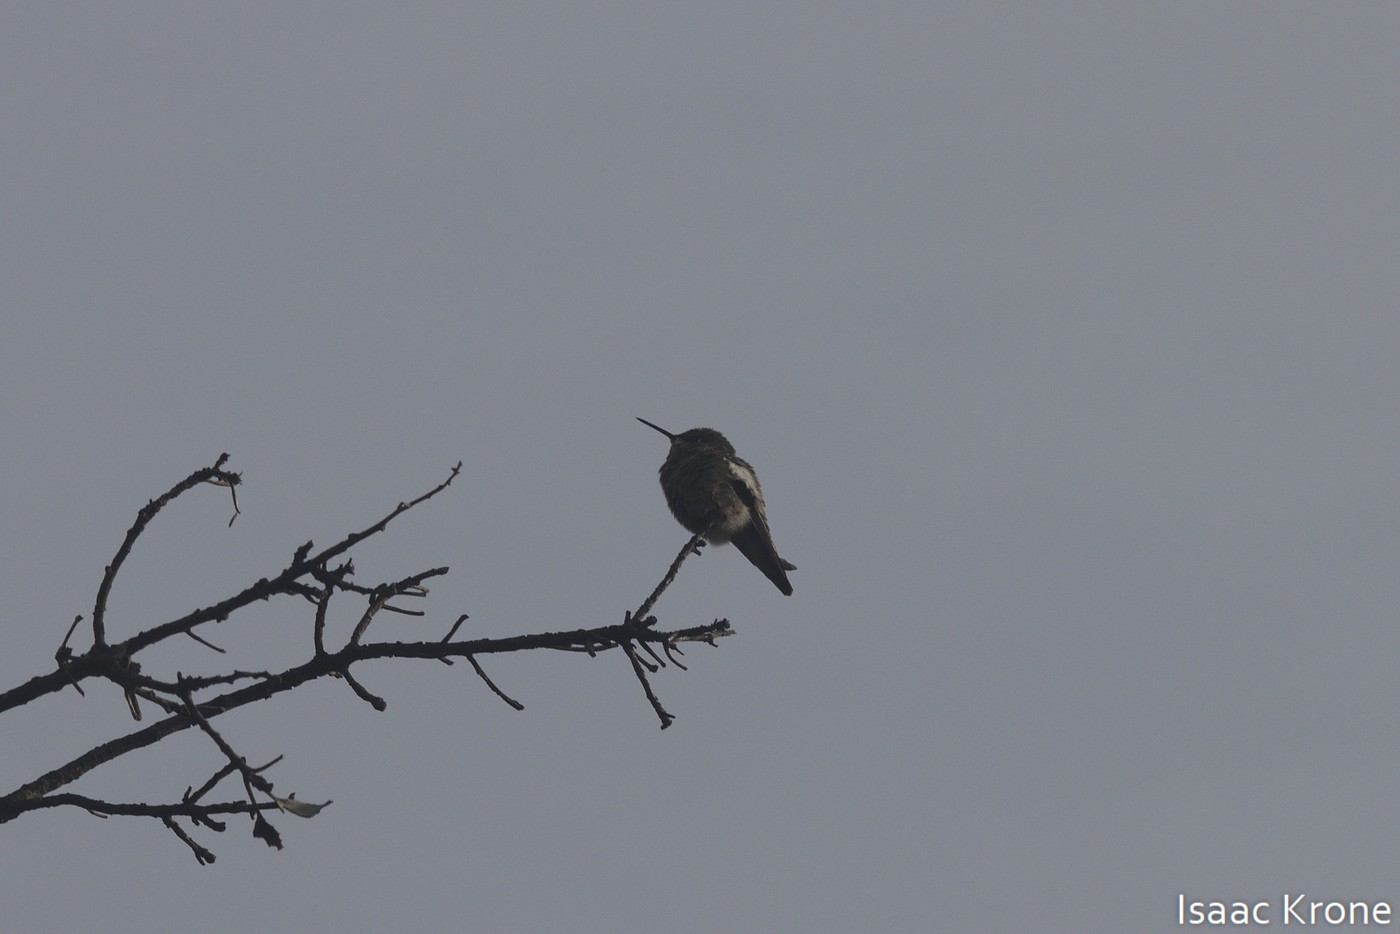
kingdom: Animalia
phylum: Chordata
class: Aves
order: Apodiformes
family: Trochilidae
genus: Calypte
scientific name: Calypte anna
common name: Anna's hummingbird
